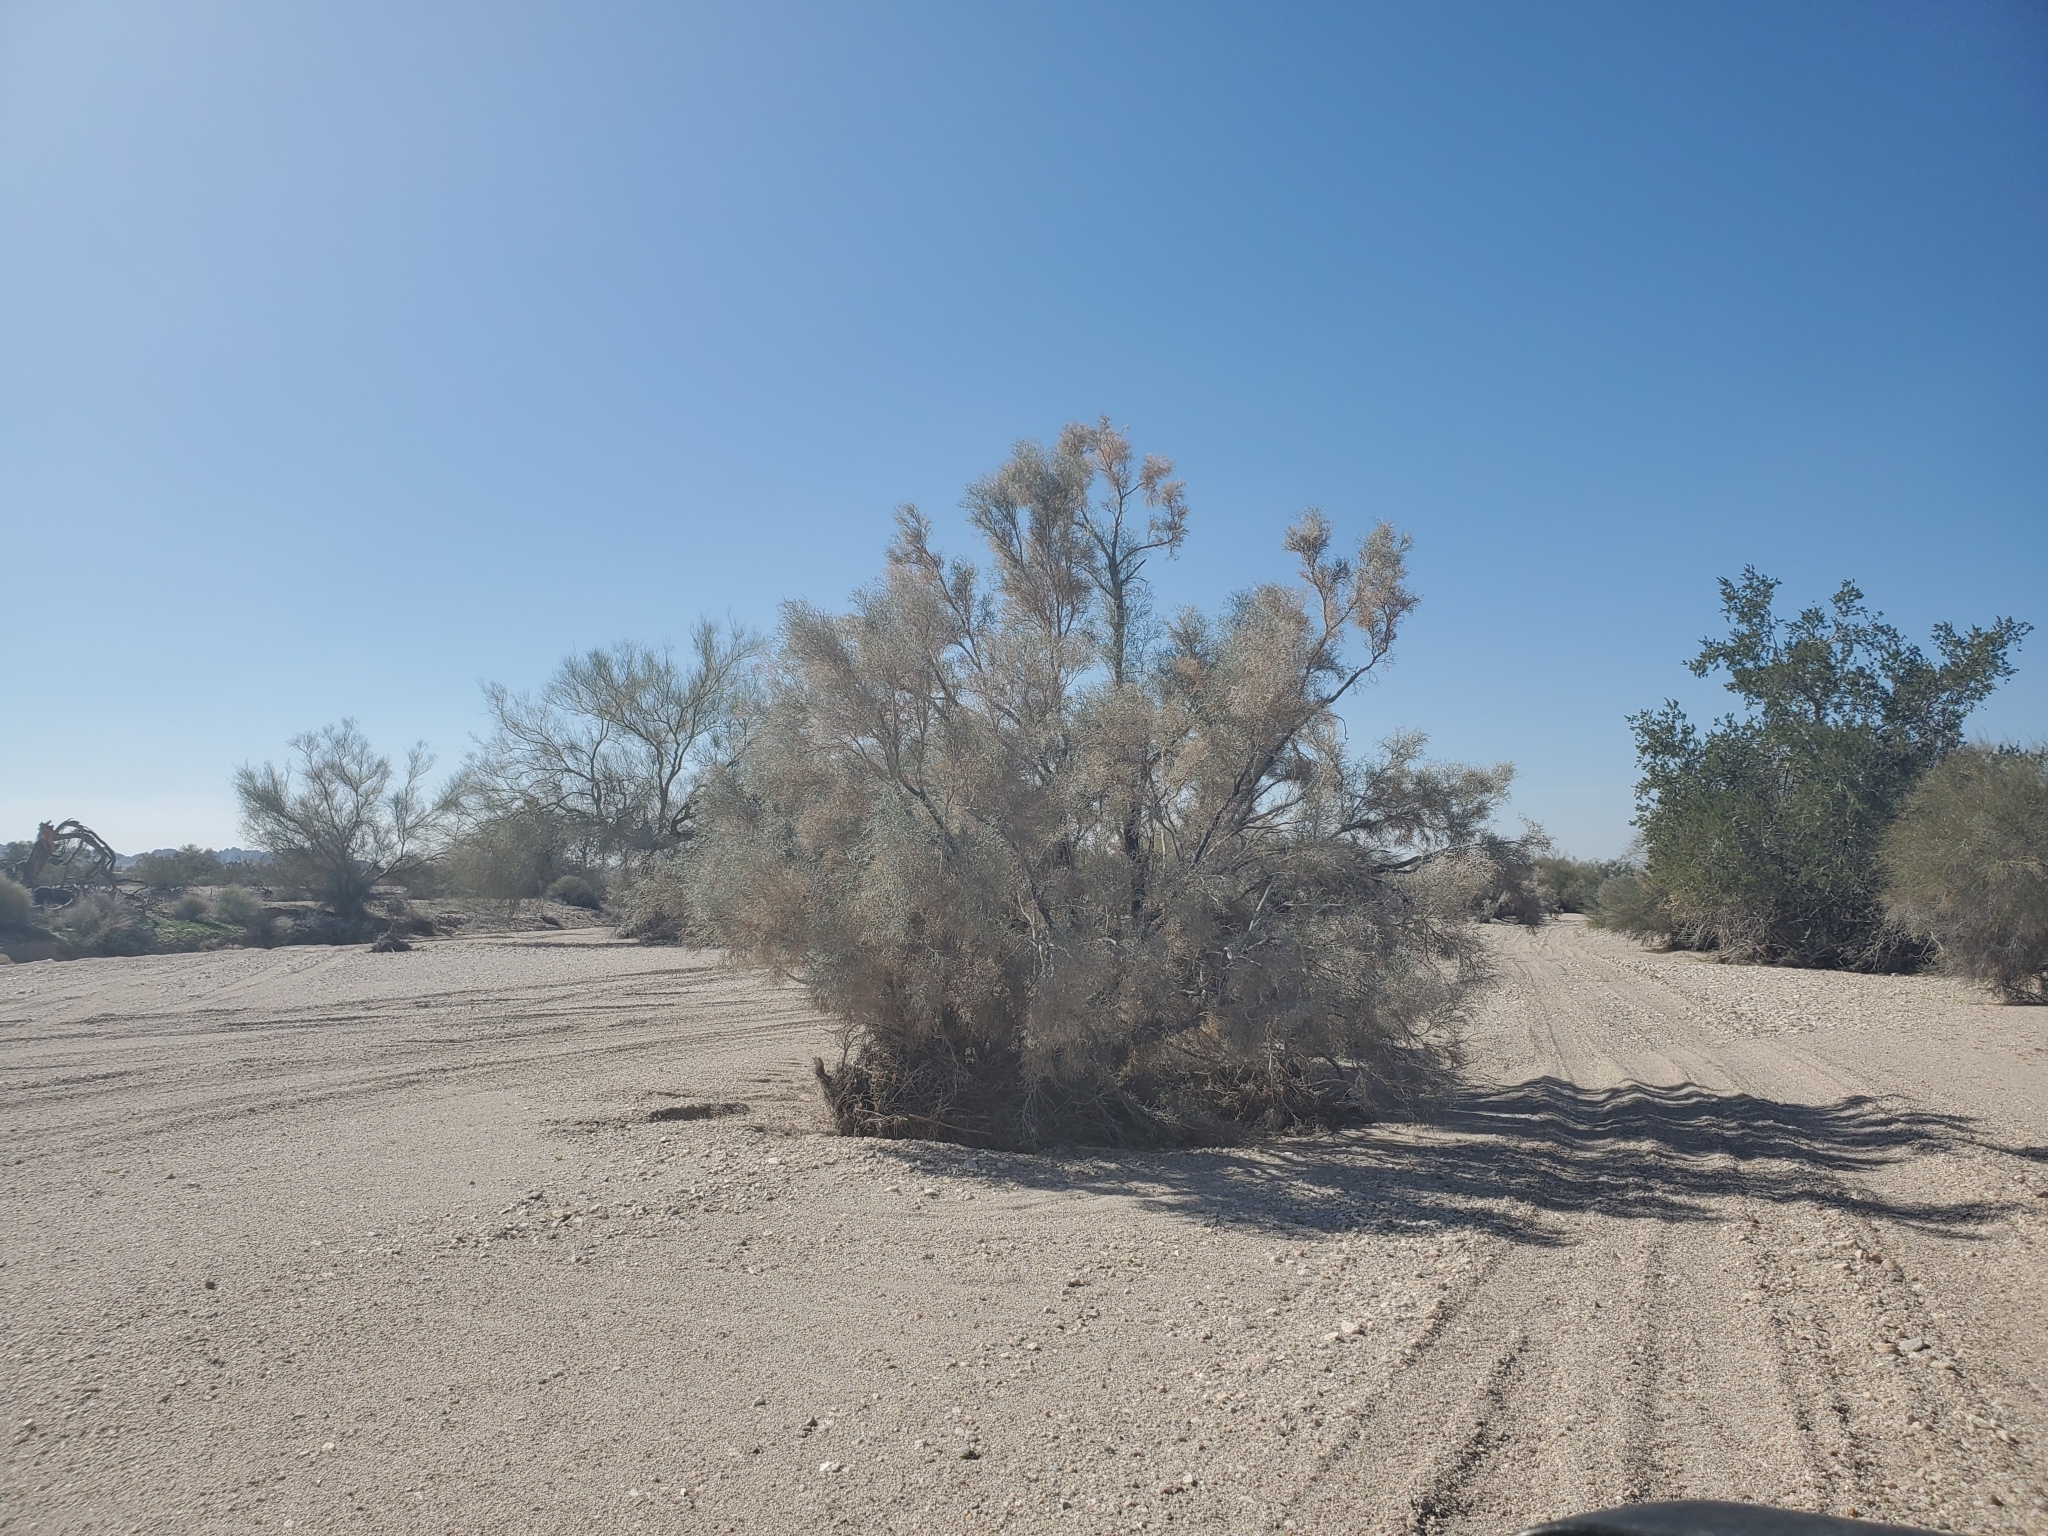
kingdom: Plantae
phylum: Tracheophyta
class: Magnoliopsida
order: Fabales
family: Fabaceae
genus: Psorothamnus
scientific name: Psorothamnus spinosus
